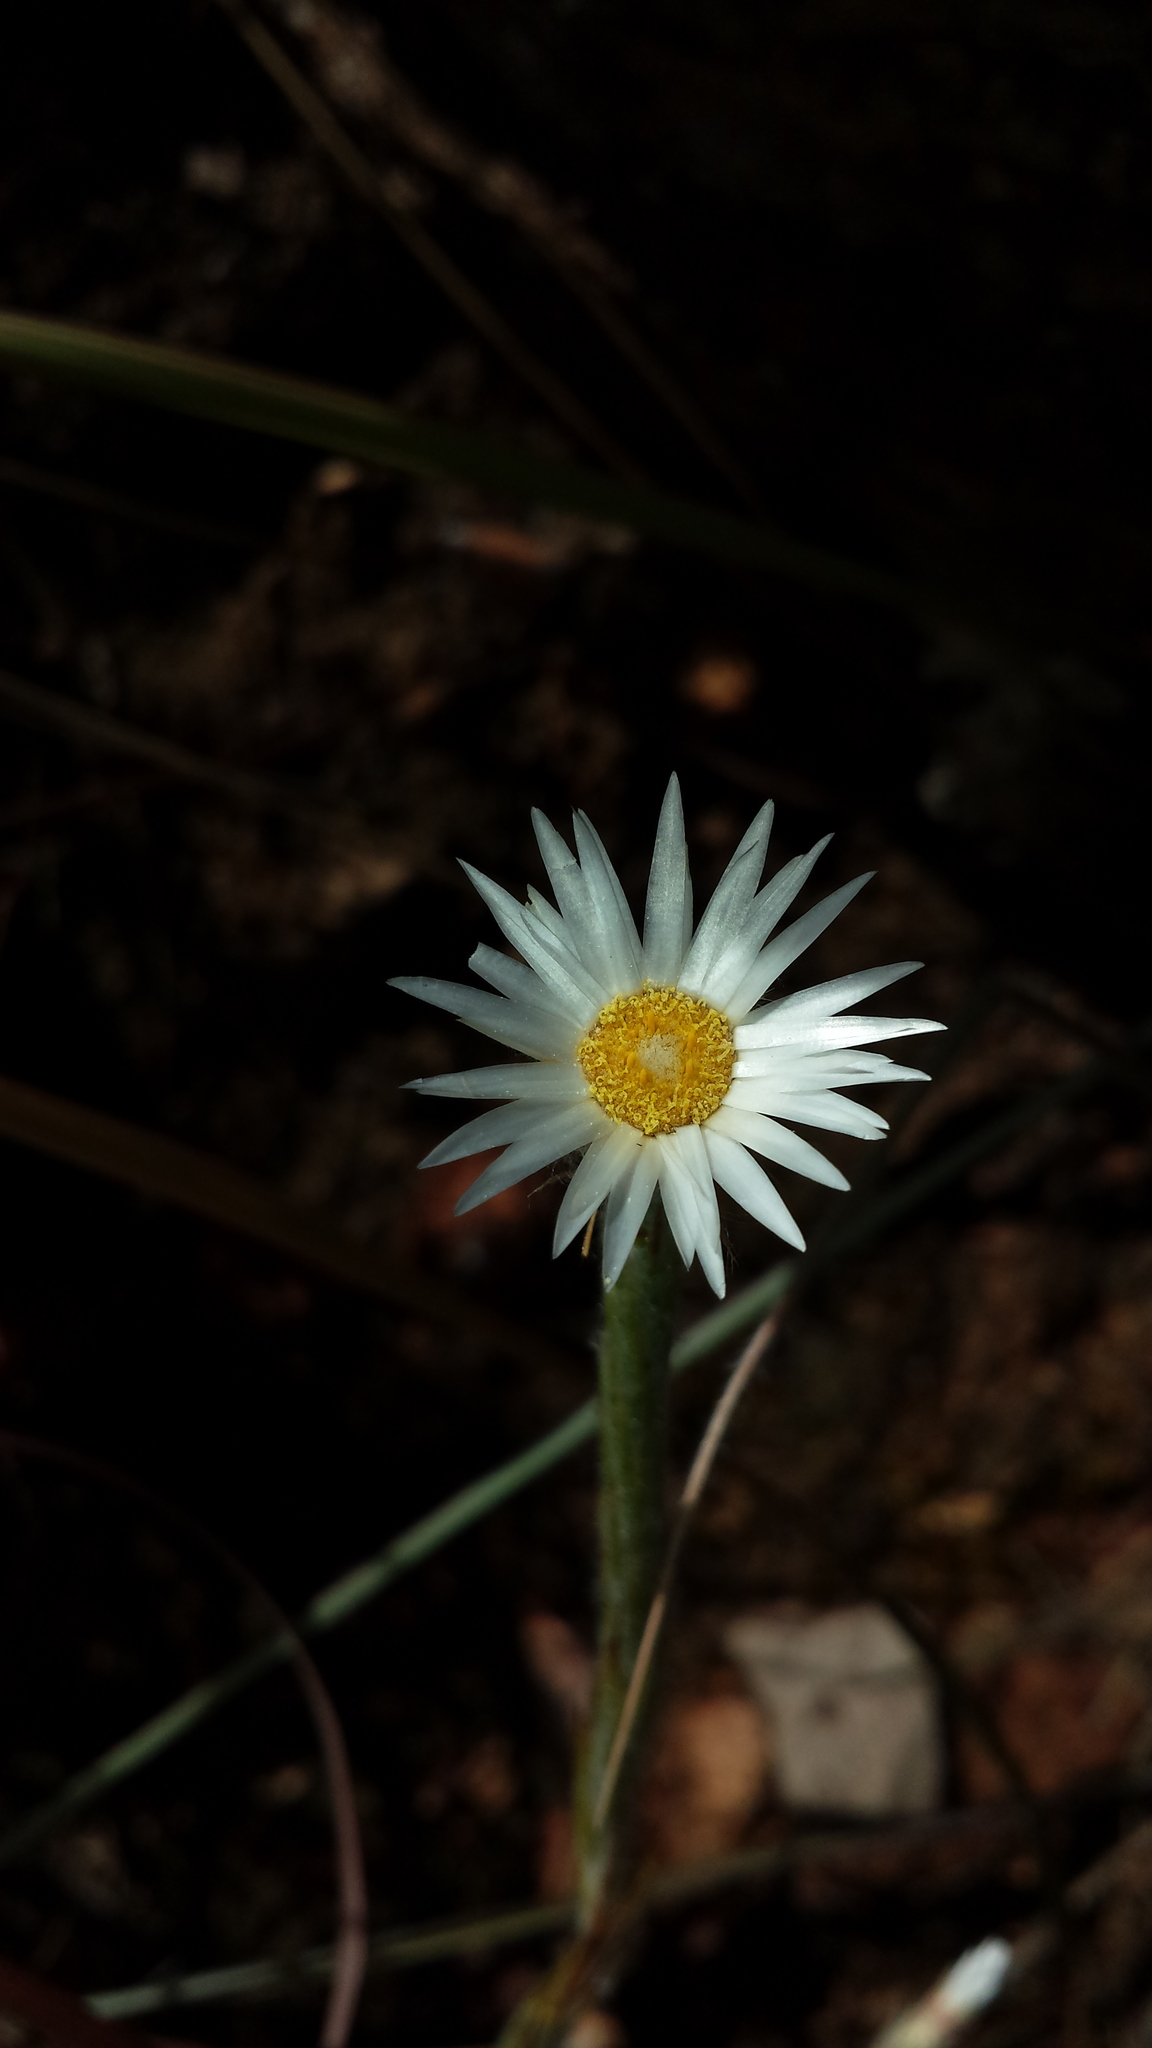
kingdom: Plantae
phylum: Tracheophyta
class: Magnoliopsida
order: Asterales
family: Asteraceae
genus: Aphelexis
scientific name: Aphelexis candollei
